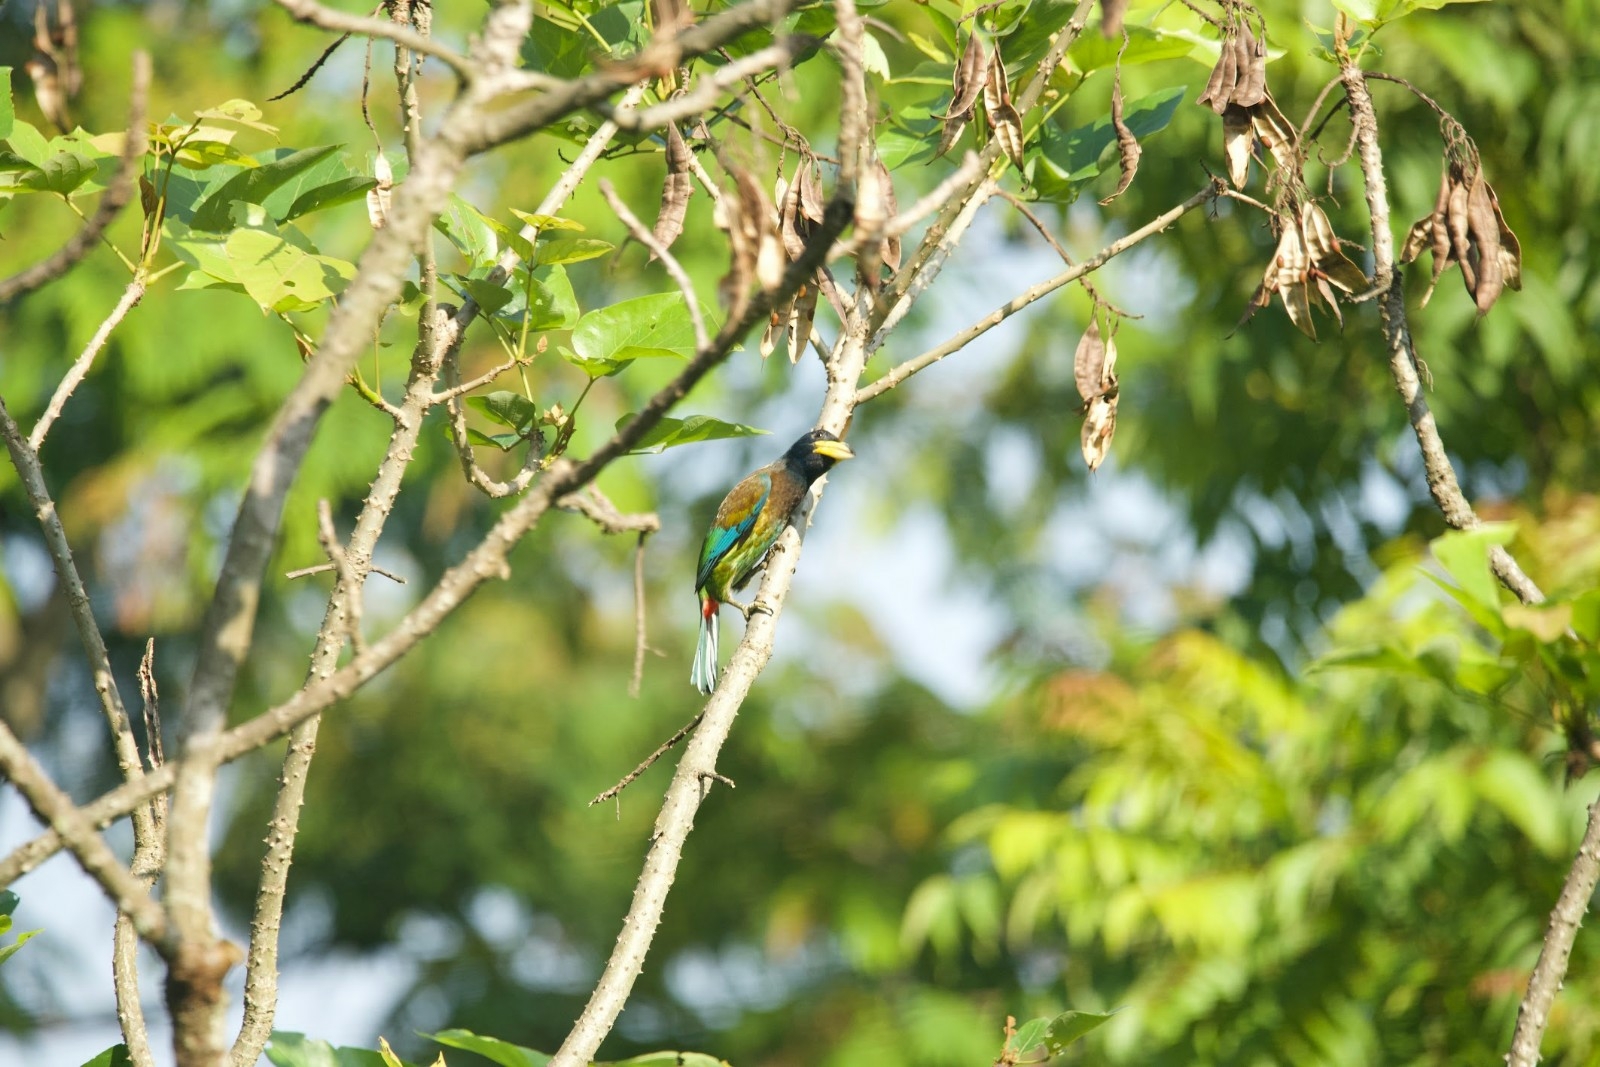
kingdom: Animalia
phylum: Chordata
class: Aves
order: Piciformes
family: Megalaimidae
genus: Psilopogon
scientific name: Psilopogon virens
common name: Great barbet
